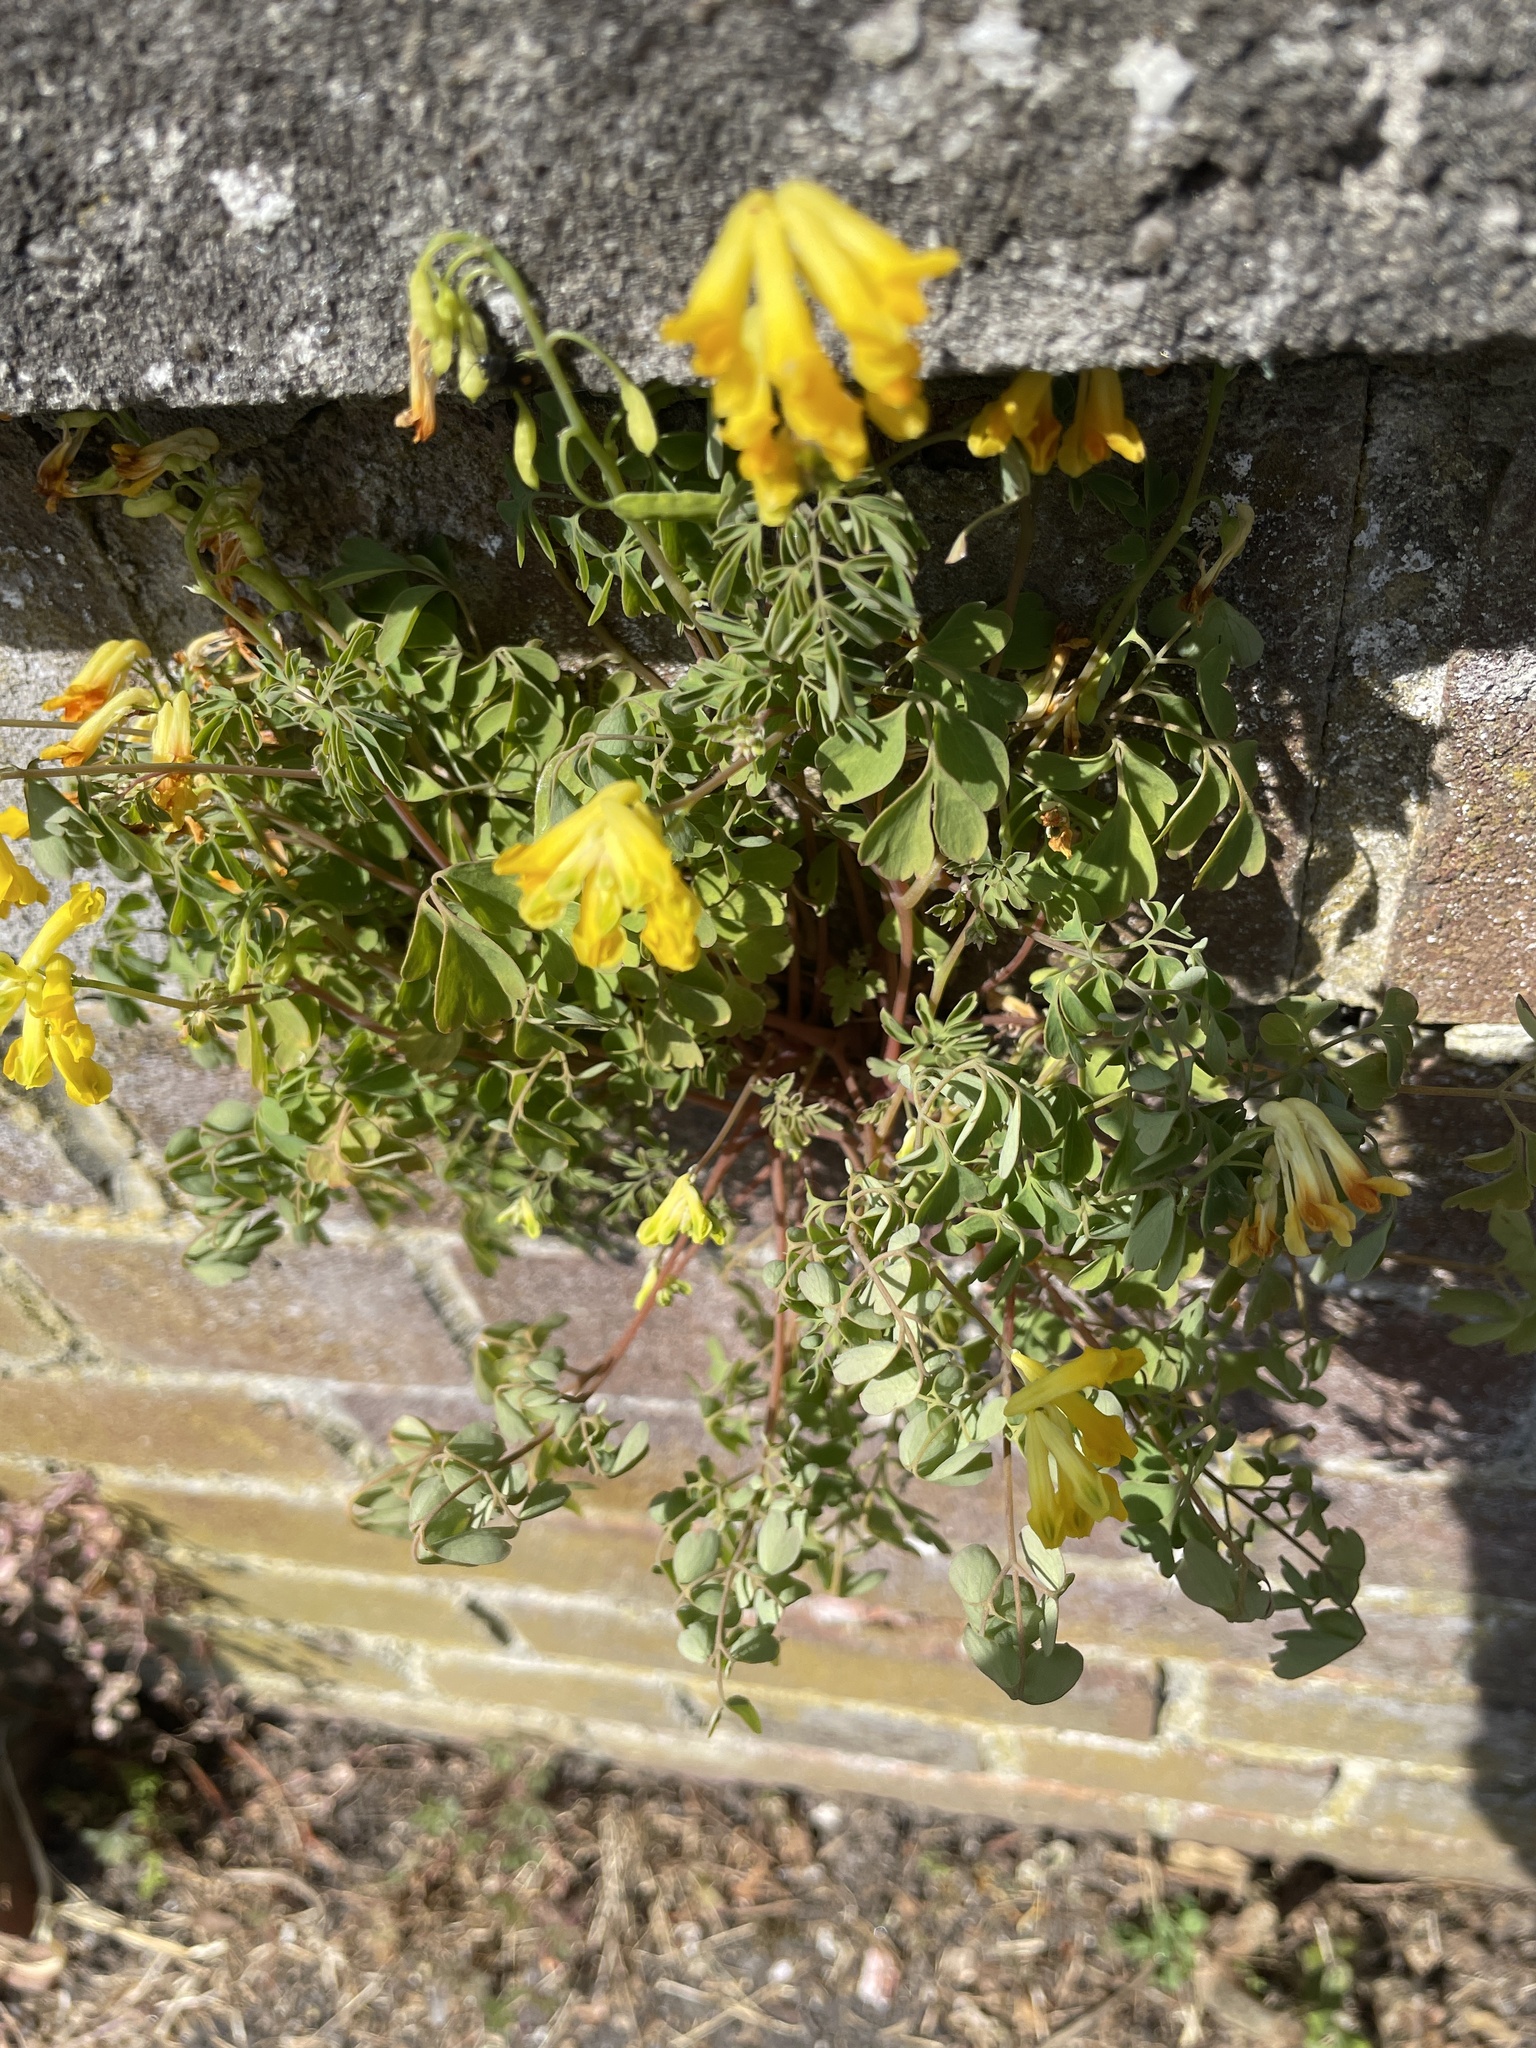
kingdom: Plantae
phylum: Tracheophyta
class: Magnoliopsida
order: Ranunculales
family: Papaveraceae
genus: Pseudofumaria
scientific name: Pseudofumaria lutea
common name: Yellow corydalis
